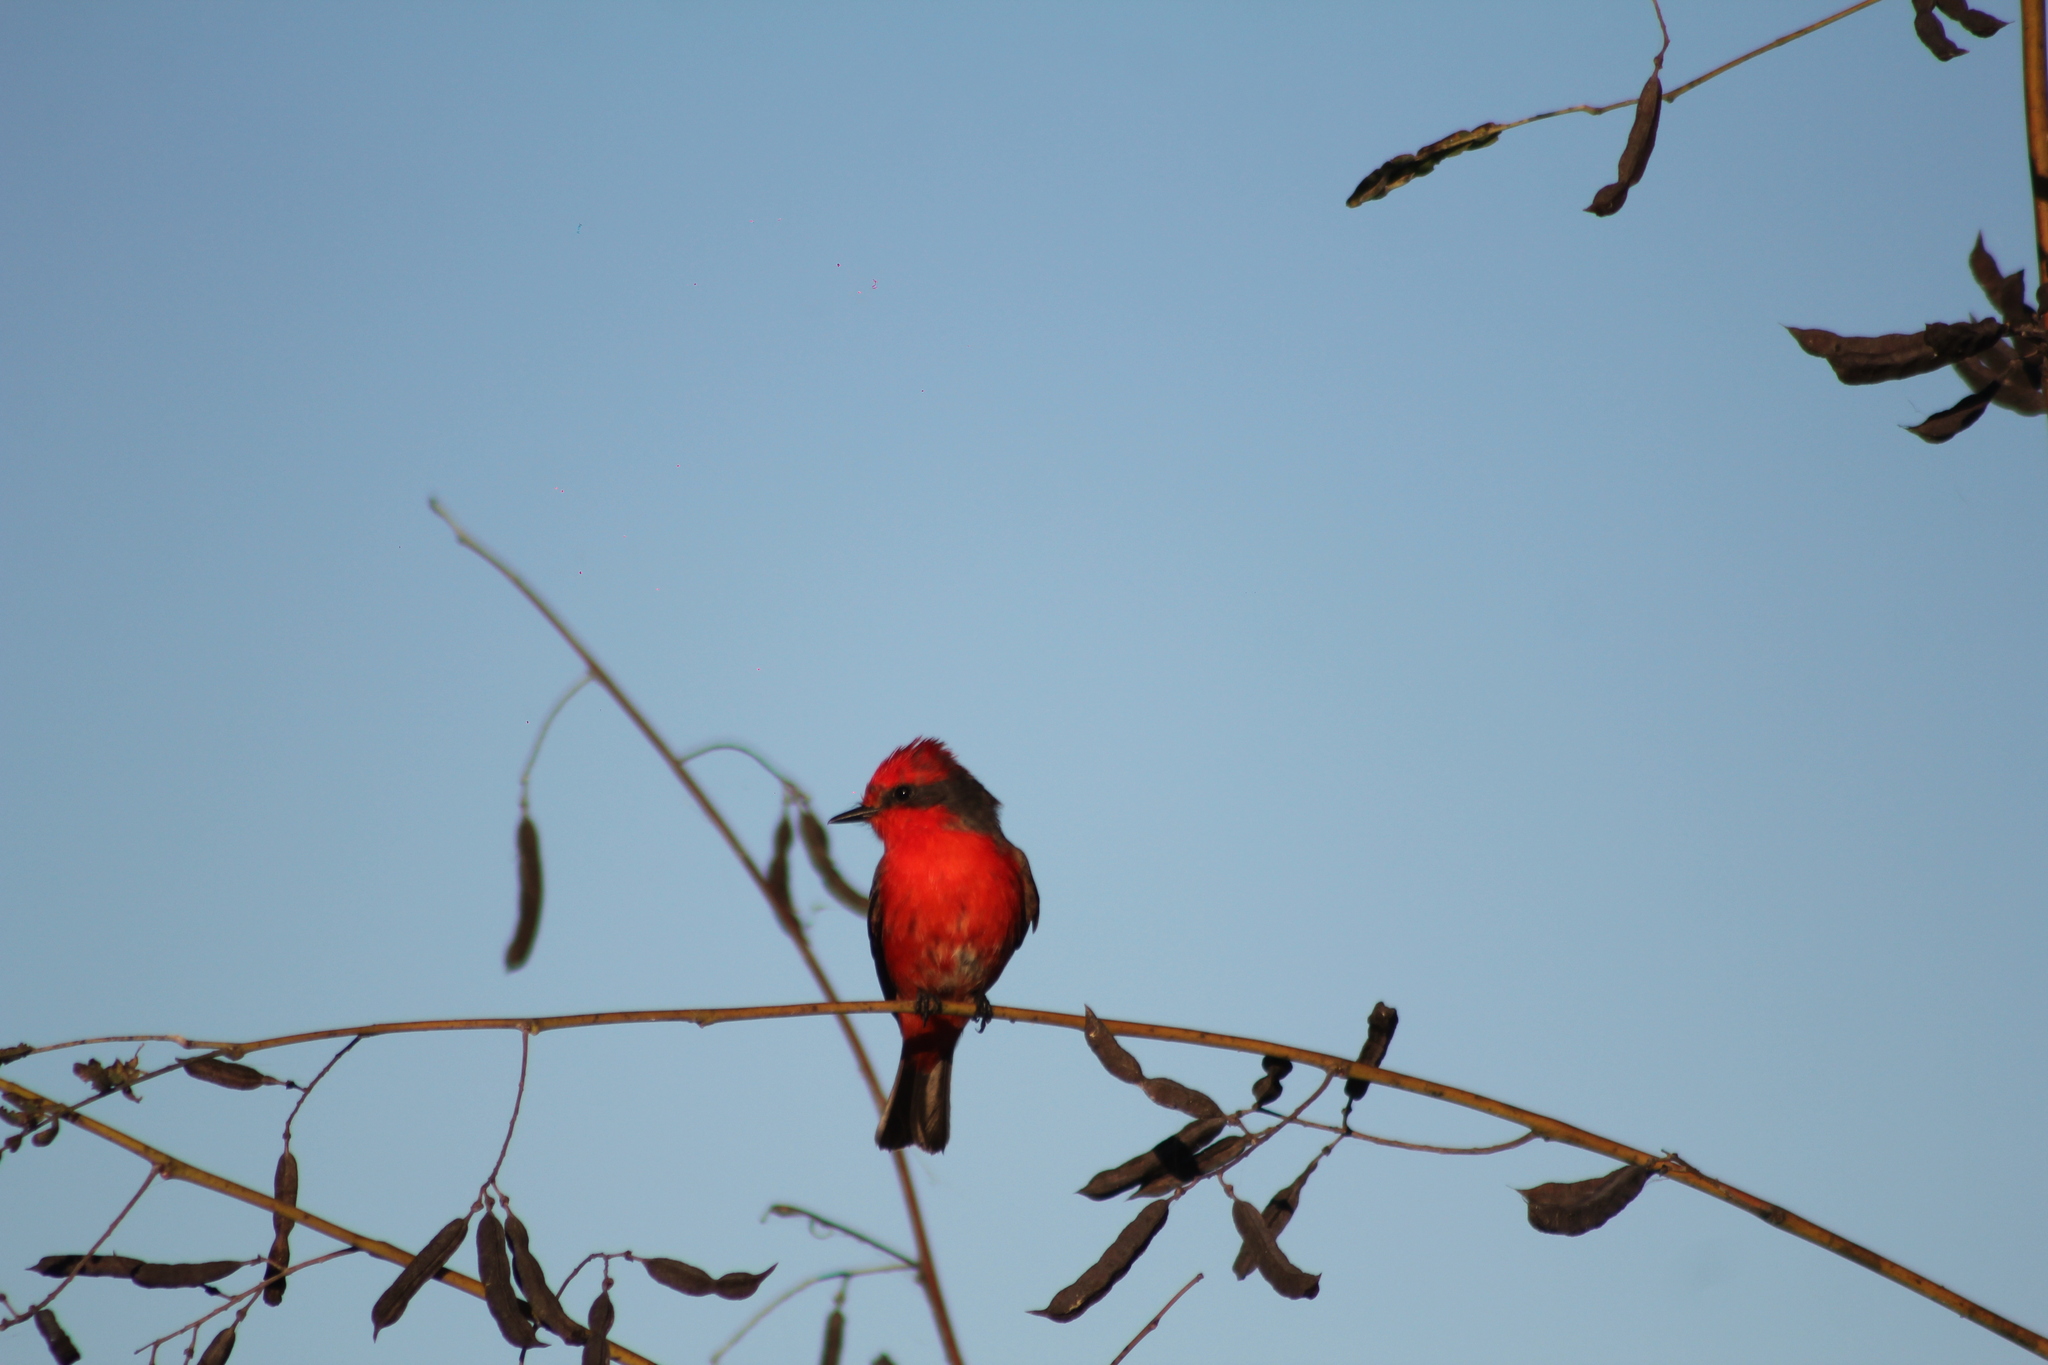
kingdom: Animalia
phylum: Chordata
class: Aves
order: Passeriformes
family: Tyrannidae
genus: Pyrocephalus
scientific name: Pyrocephalus rubinus
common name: Vermilion flycatcher
